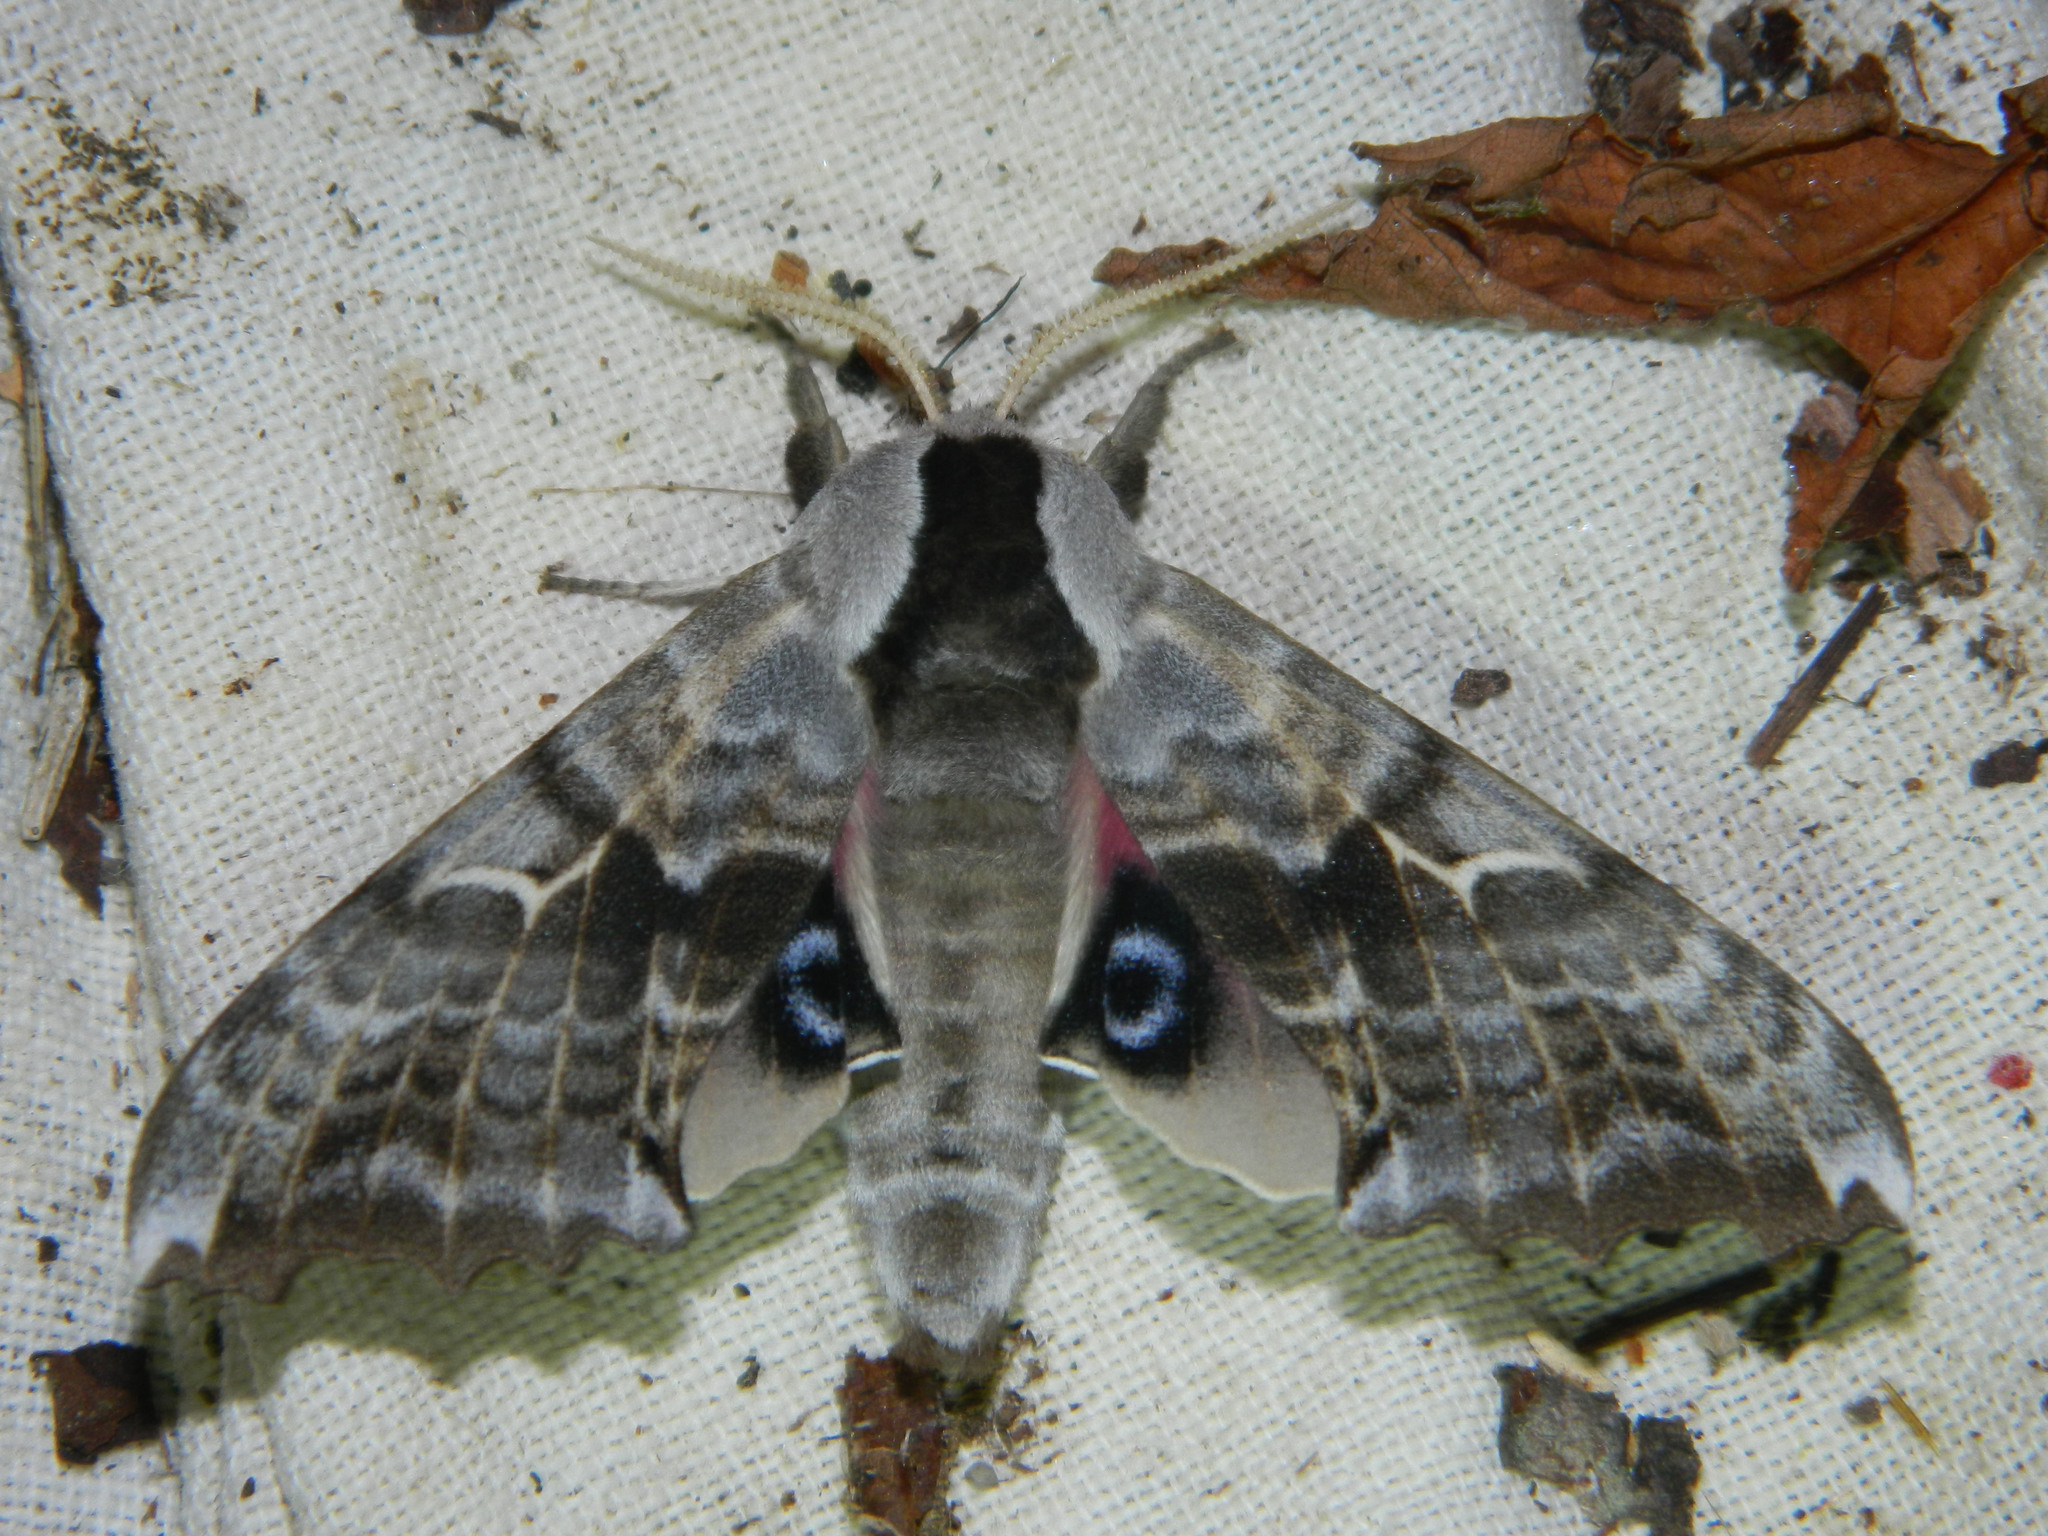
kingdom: Animalia
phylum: Arthropoda
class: Insecta
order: Lepidoptera
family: Sphingidae
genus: Smerinthus
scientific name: Smerinthus cerisyi
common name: Cerisy's sphinx moth
